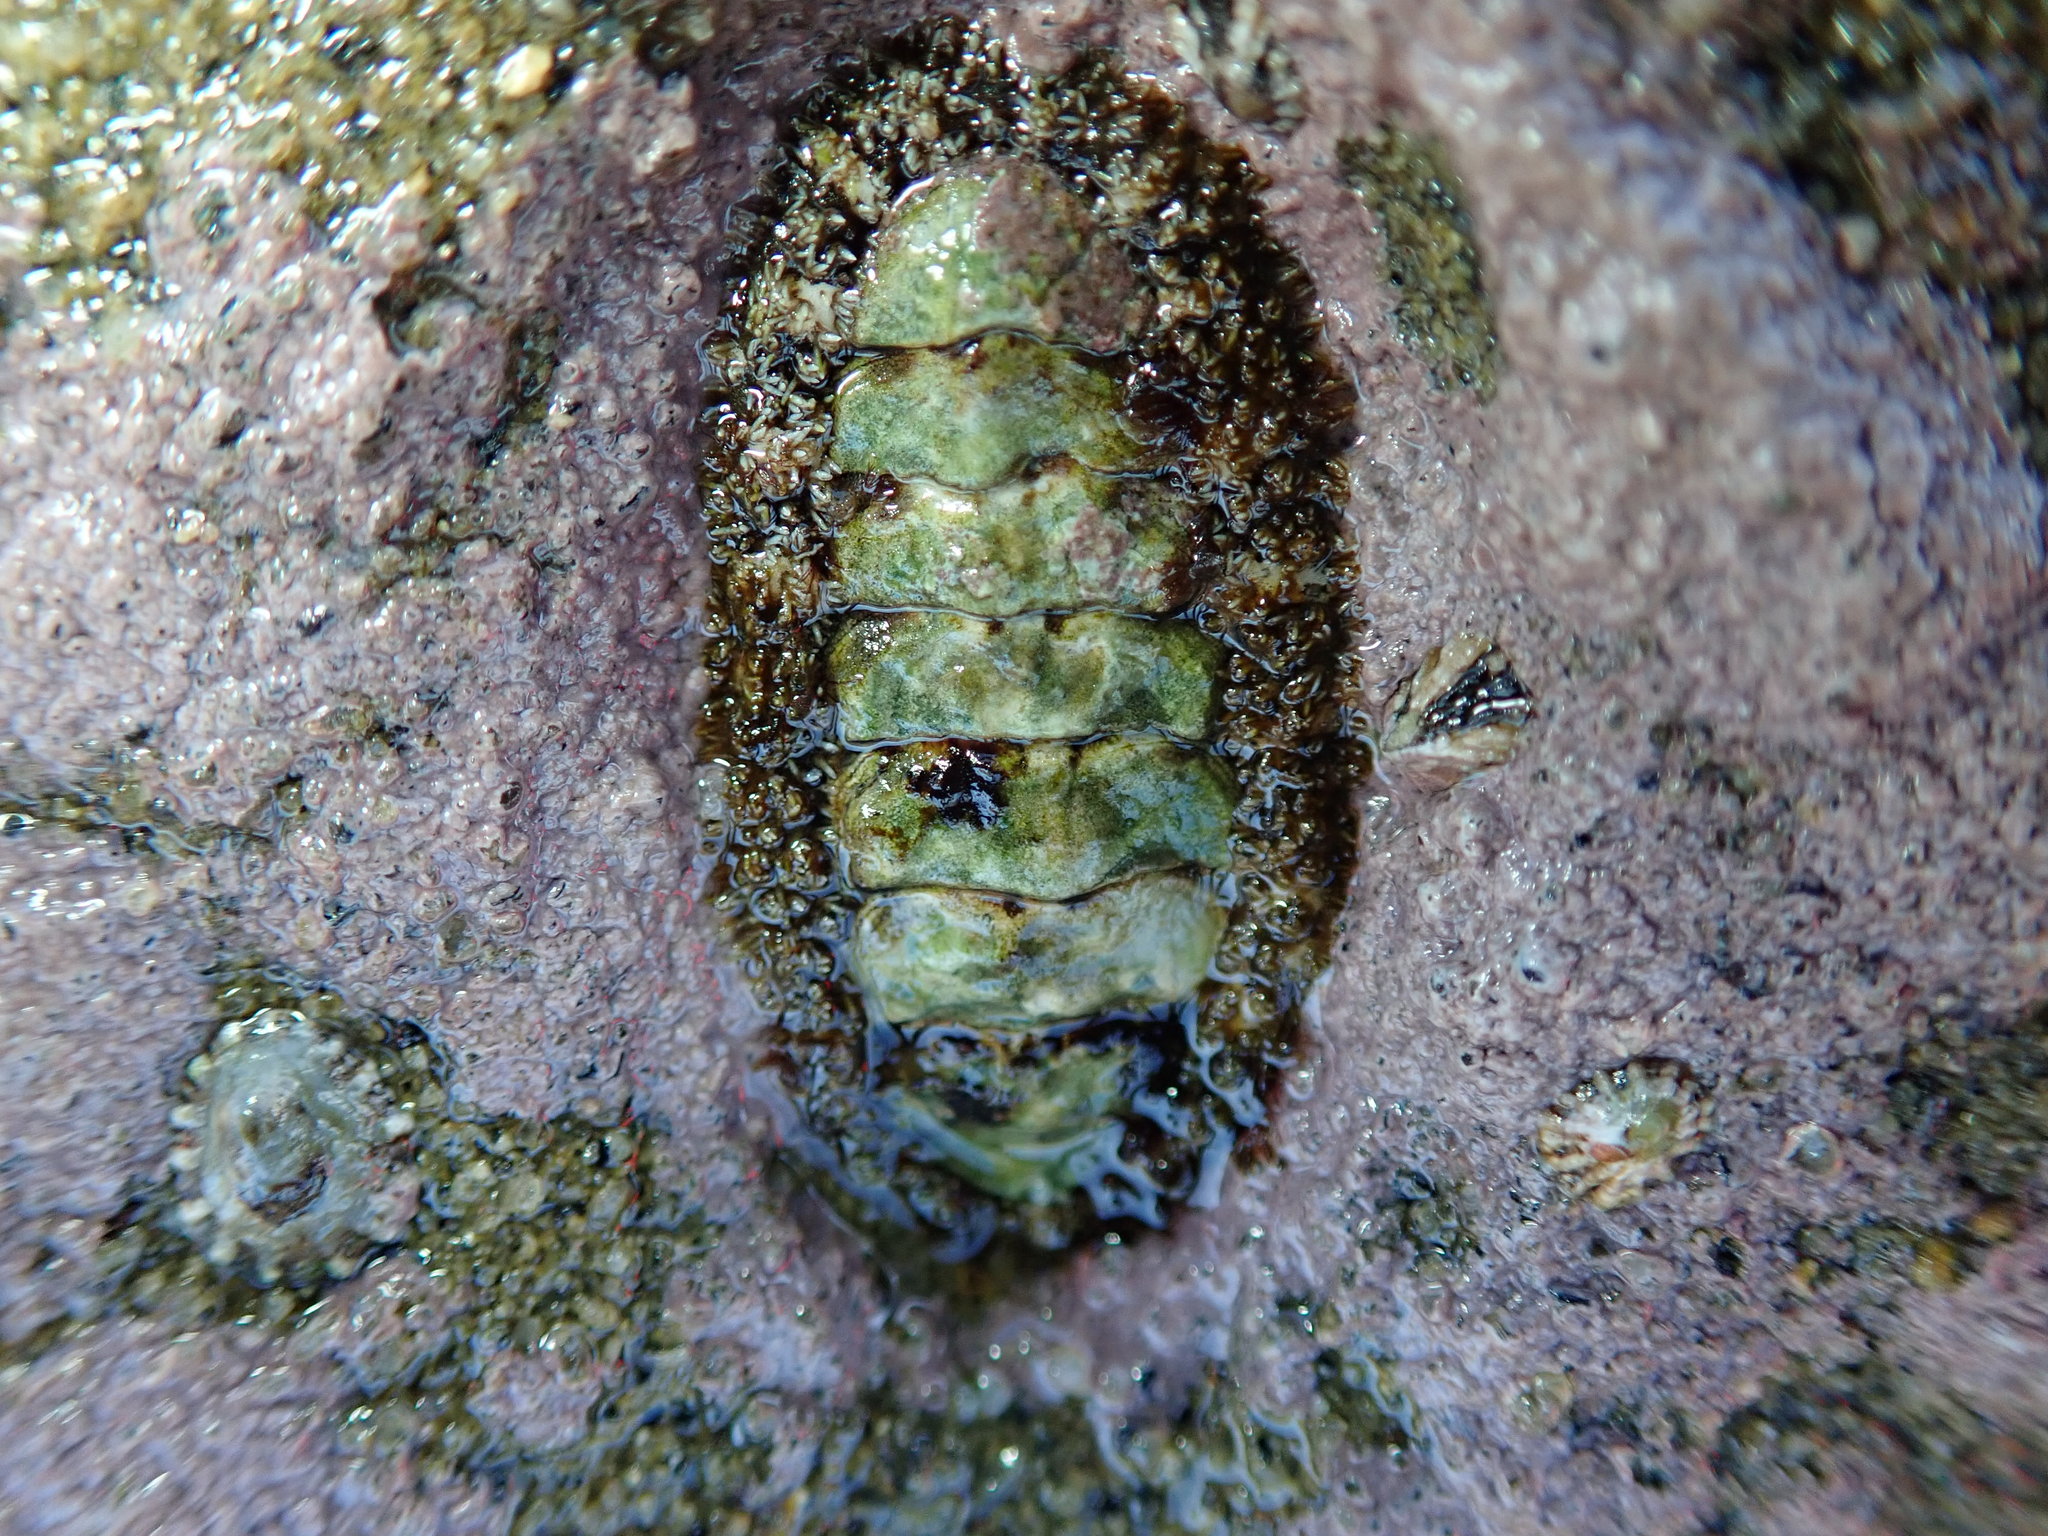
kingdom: Animalia
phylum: Mollusca
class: Polyplacophora
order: Chitonida
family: Tonicellidae
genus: Nuttallina
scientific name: Nuttallina californica
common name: California nuttall chiton
